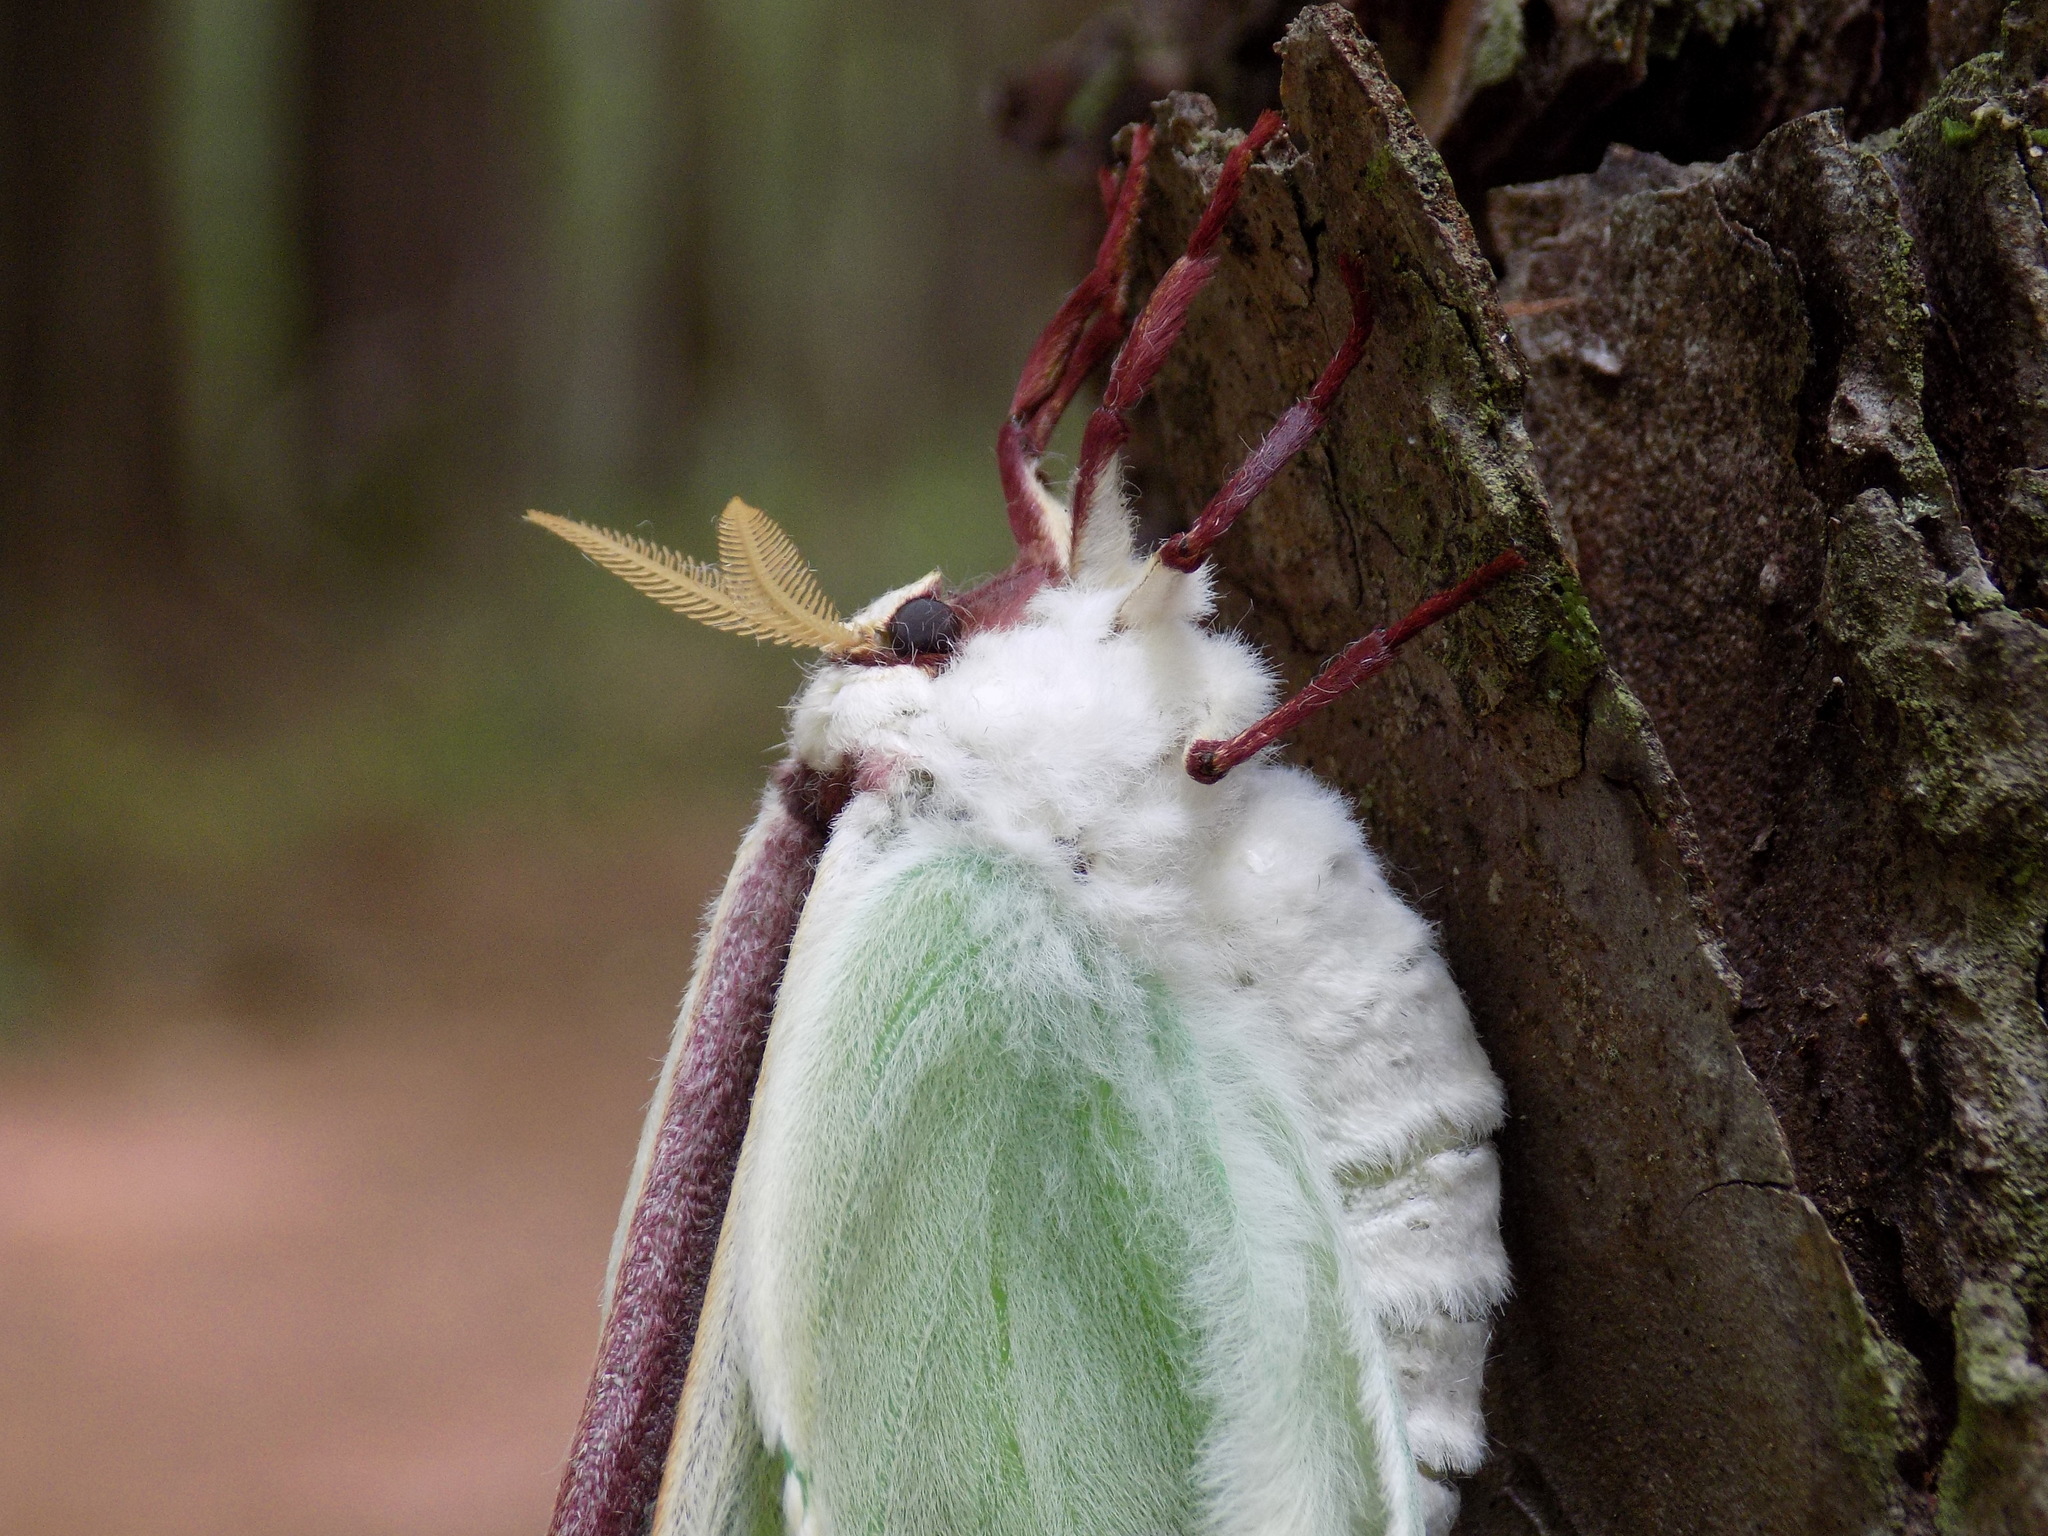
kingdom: Animalia
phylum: Arthropoda
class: Insecta
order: Lepidoptera
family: Saturniidae
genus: Actias
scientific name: Actias luna
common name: Luna moth
